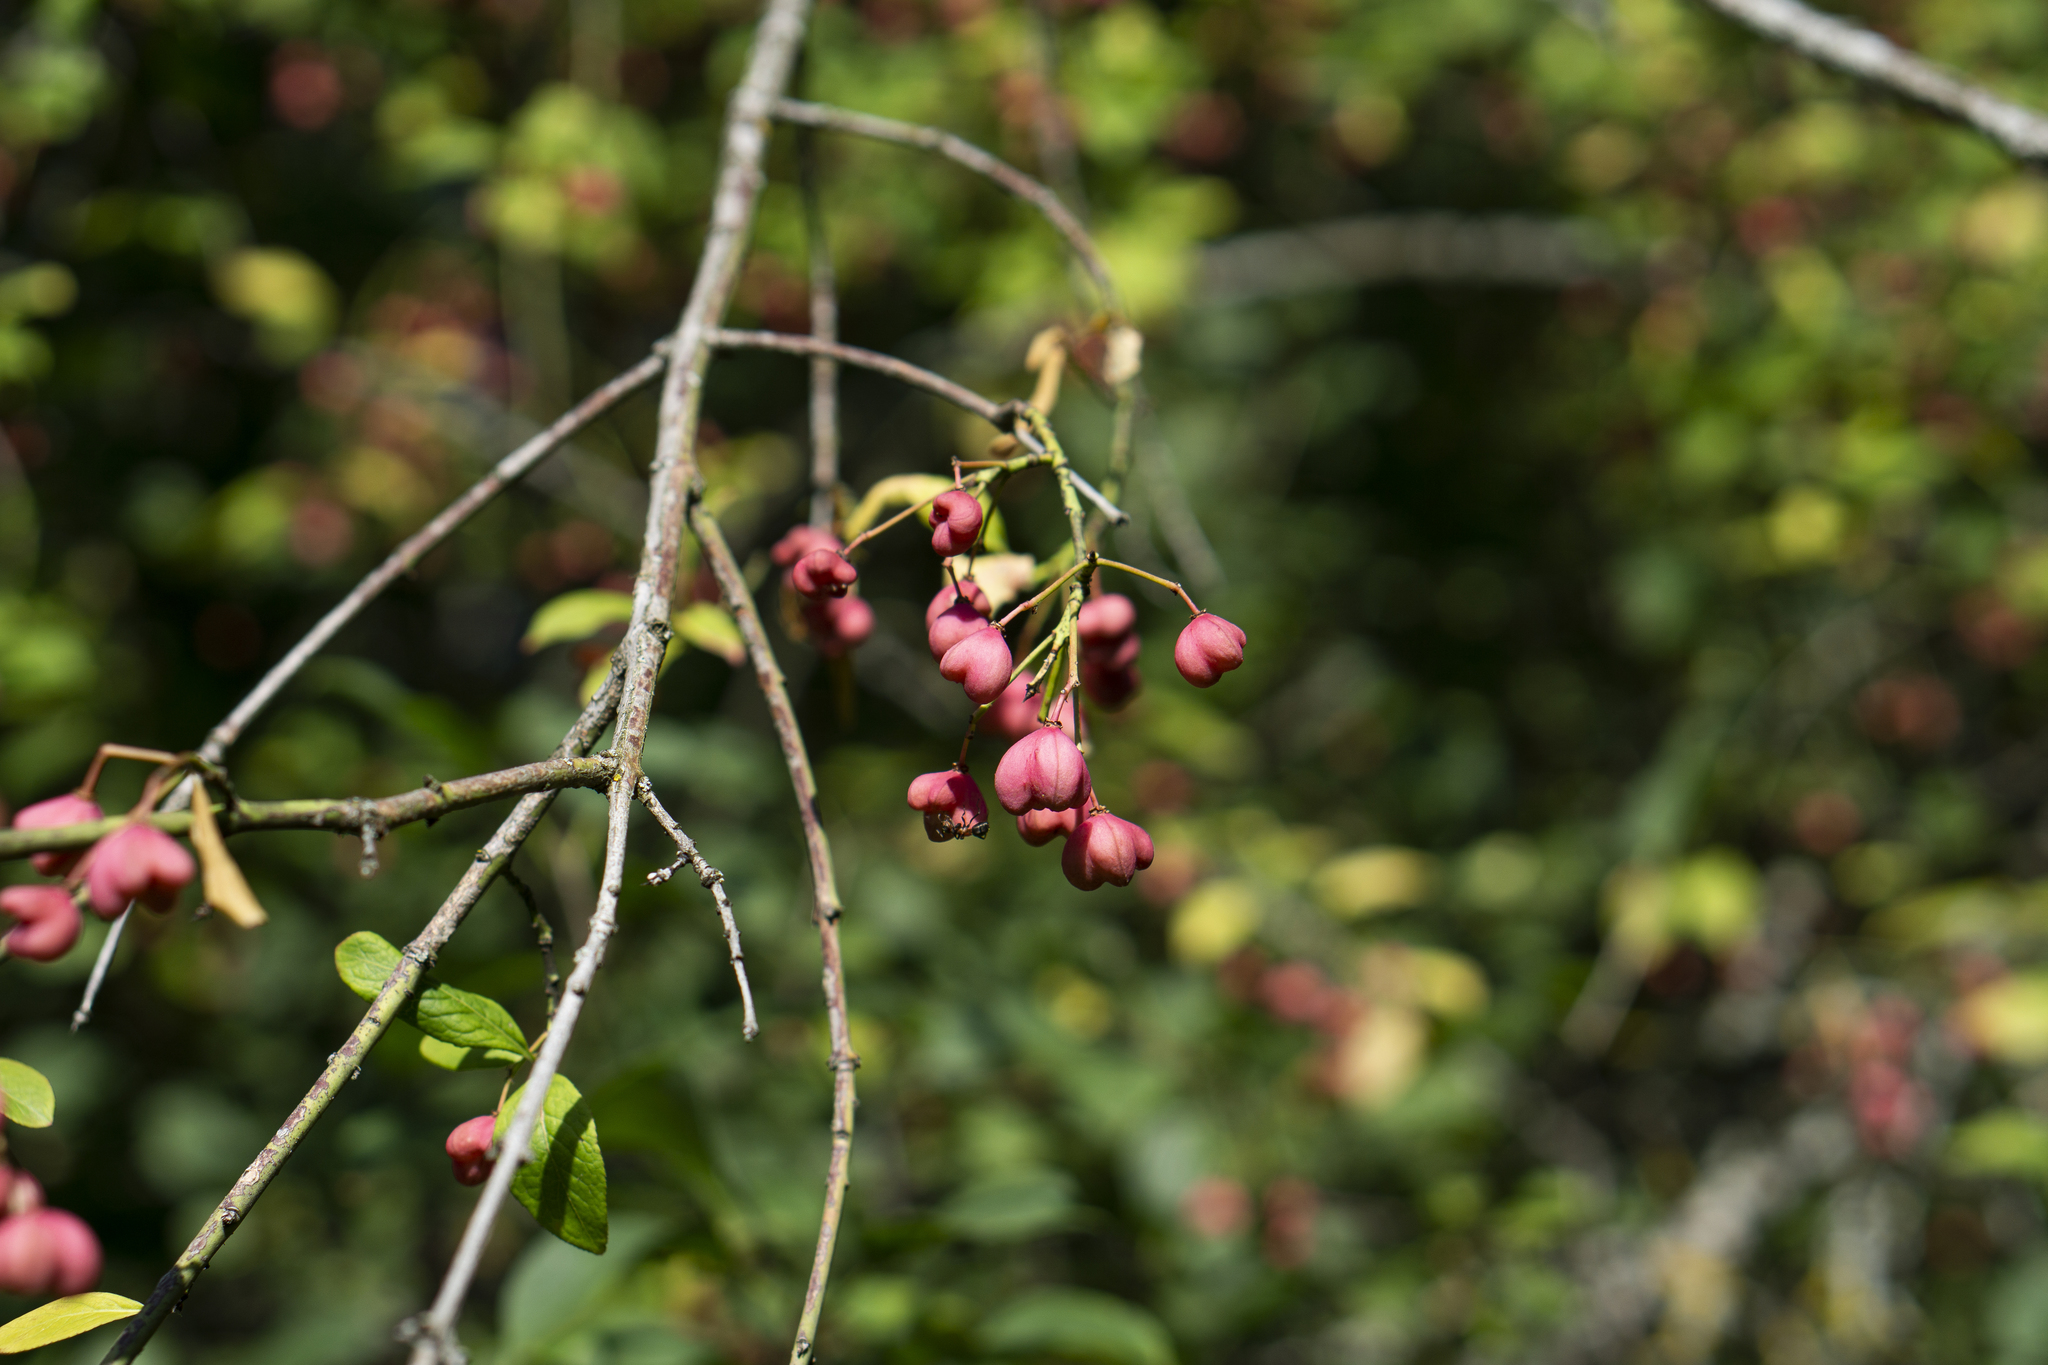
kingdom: Plantae
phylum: Tracheophyta
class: Magnoliopsida
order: Celastrales
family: Celastraceae
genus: Euonymus
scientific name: Euonymus europaeus
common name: Spindle
